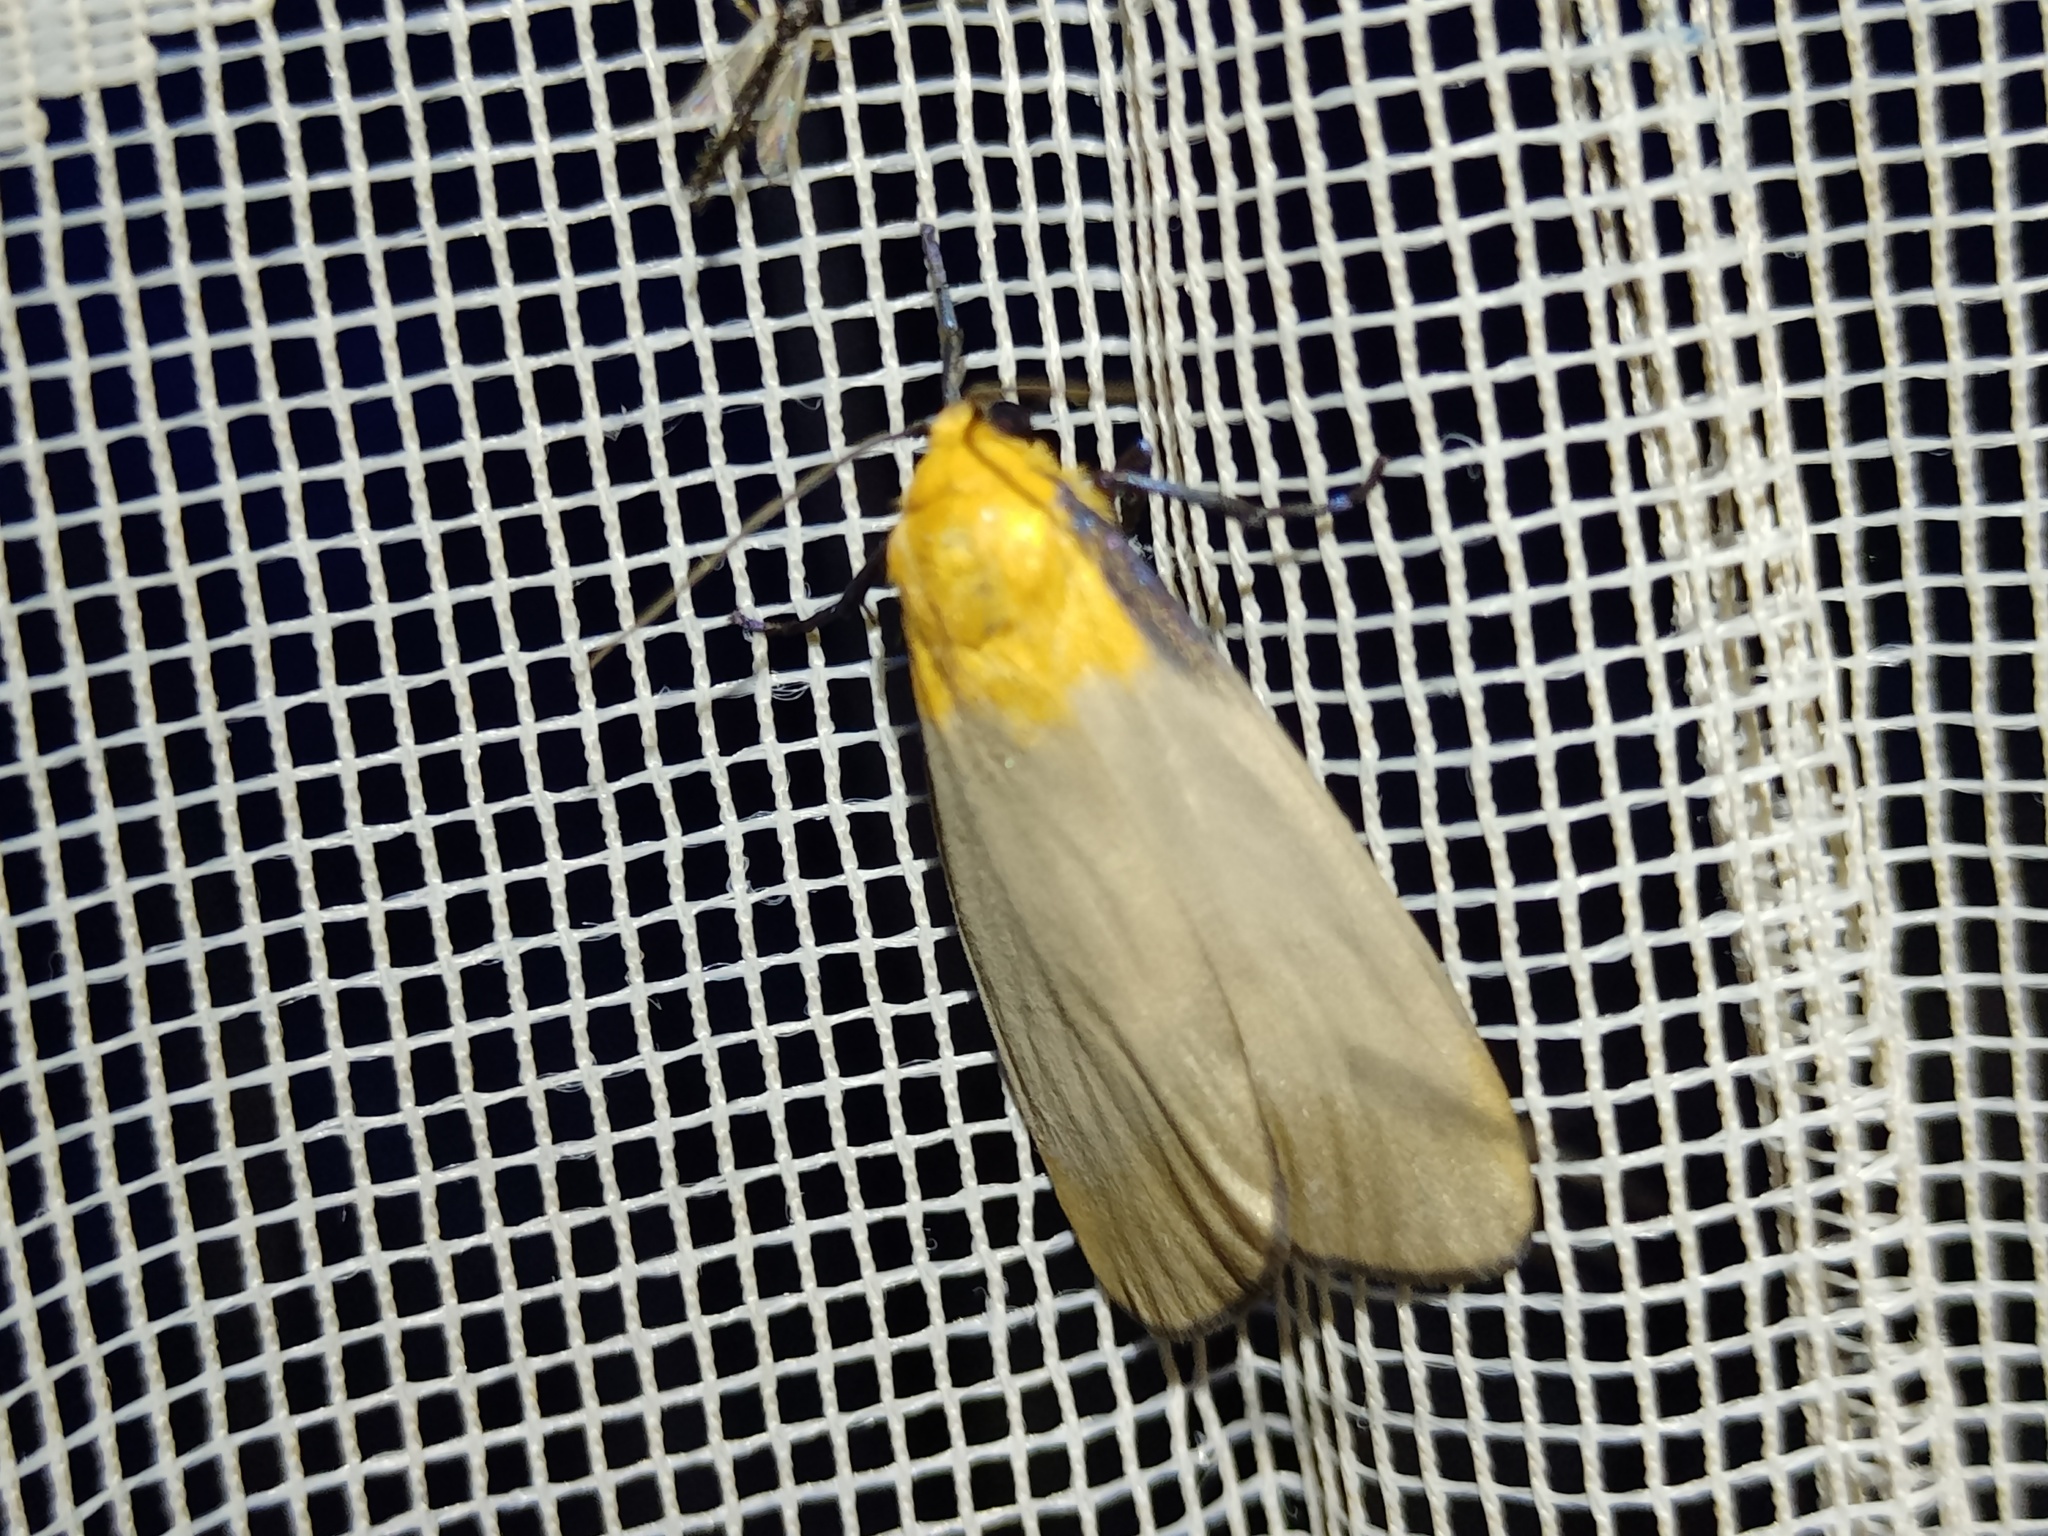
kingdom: Animalia
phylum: Arthropoda
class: Insecta
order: Lepidoptera
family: Erebidae
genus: Lithosia
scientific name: Lithosia quadra
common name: Four-spotted footman
